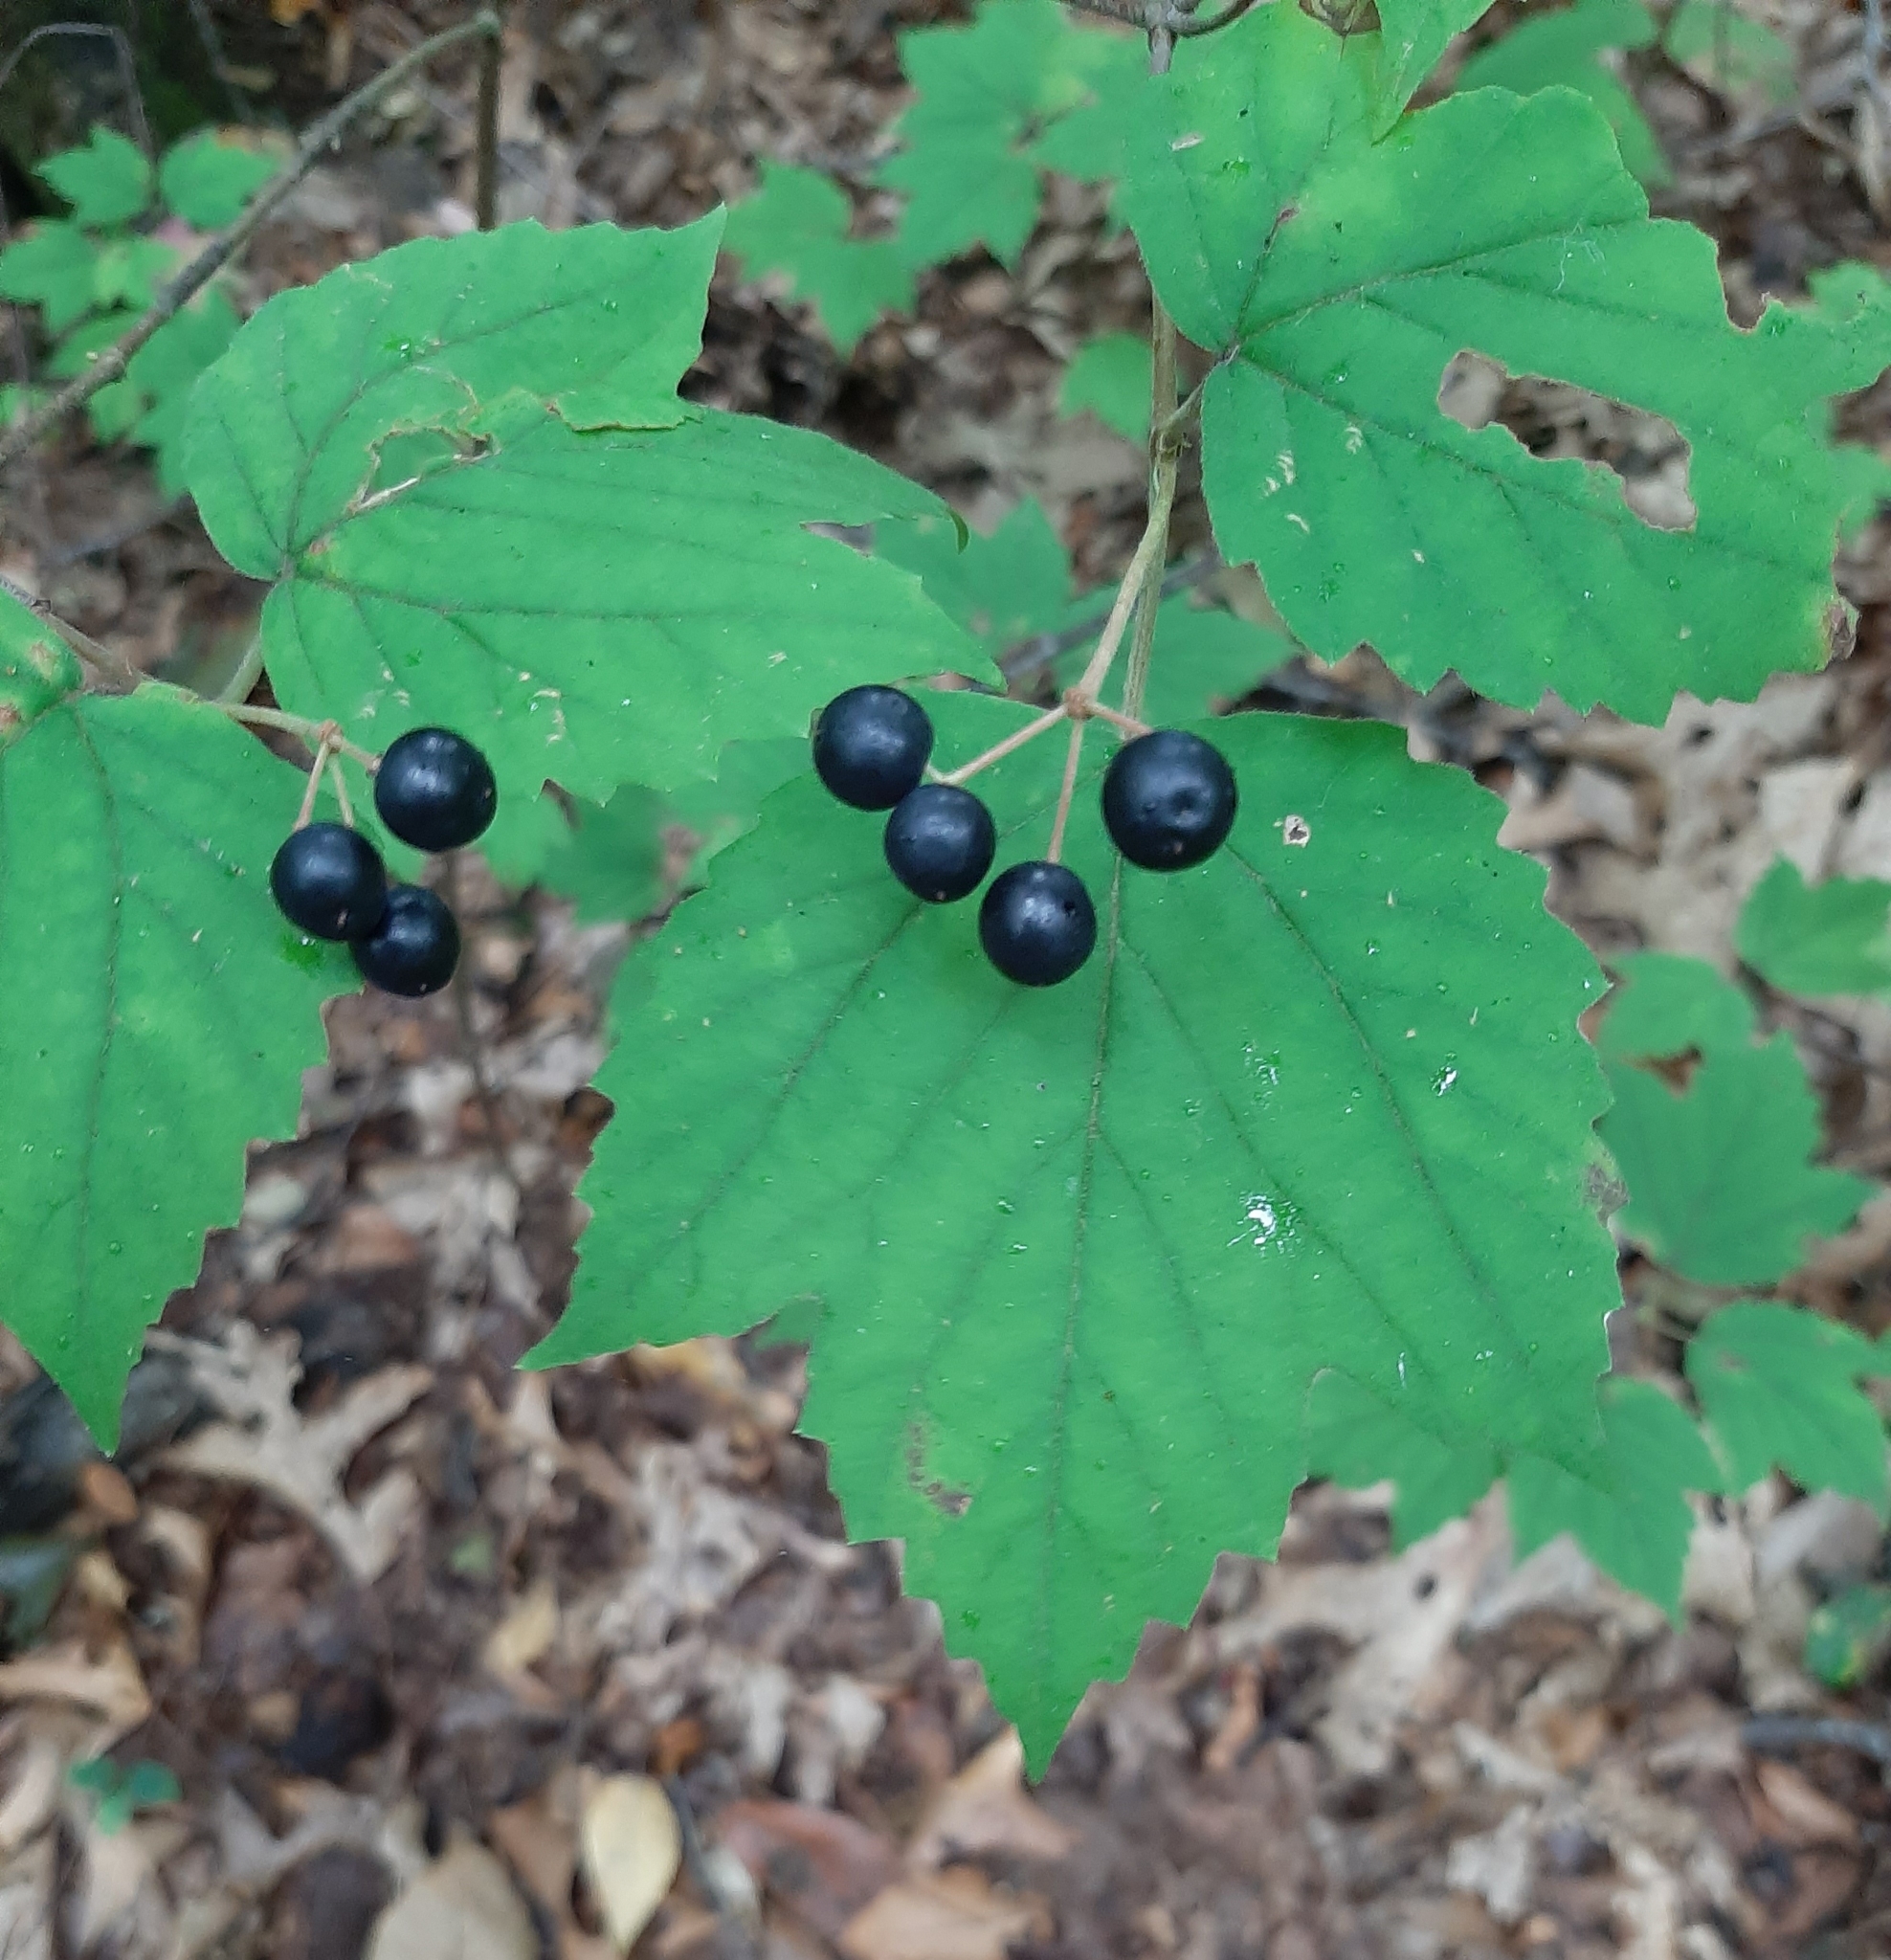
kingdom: Plantae
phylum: Tracheophyta
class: Magnoliopsida
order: Dipsacales
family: Viburnaceae
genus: Viburnum
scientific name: Viburnum acerifolium
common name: Dockmackie
